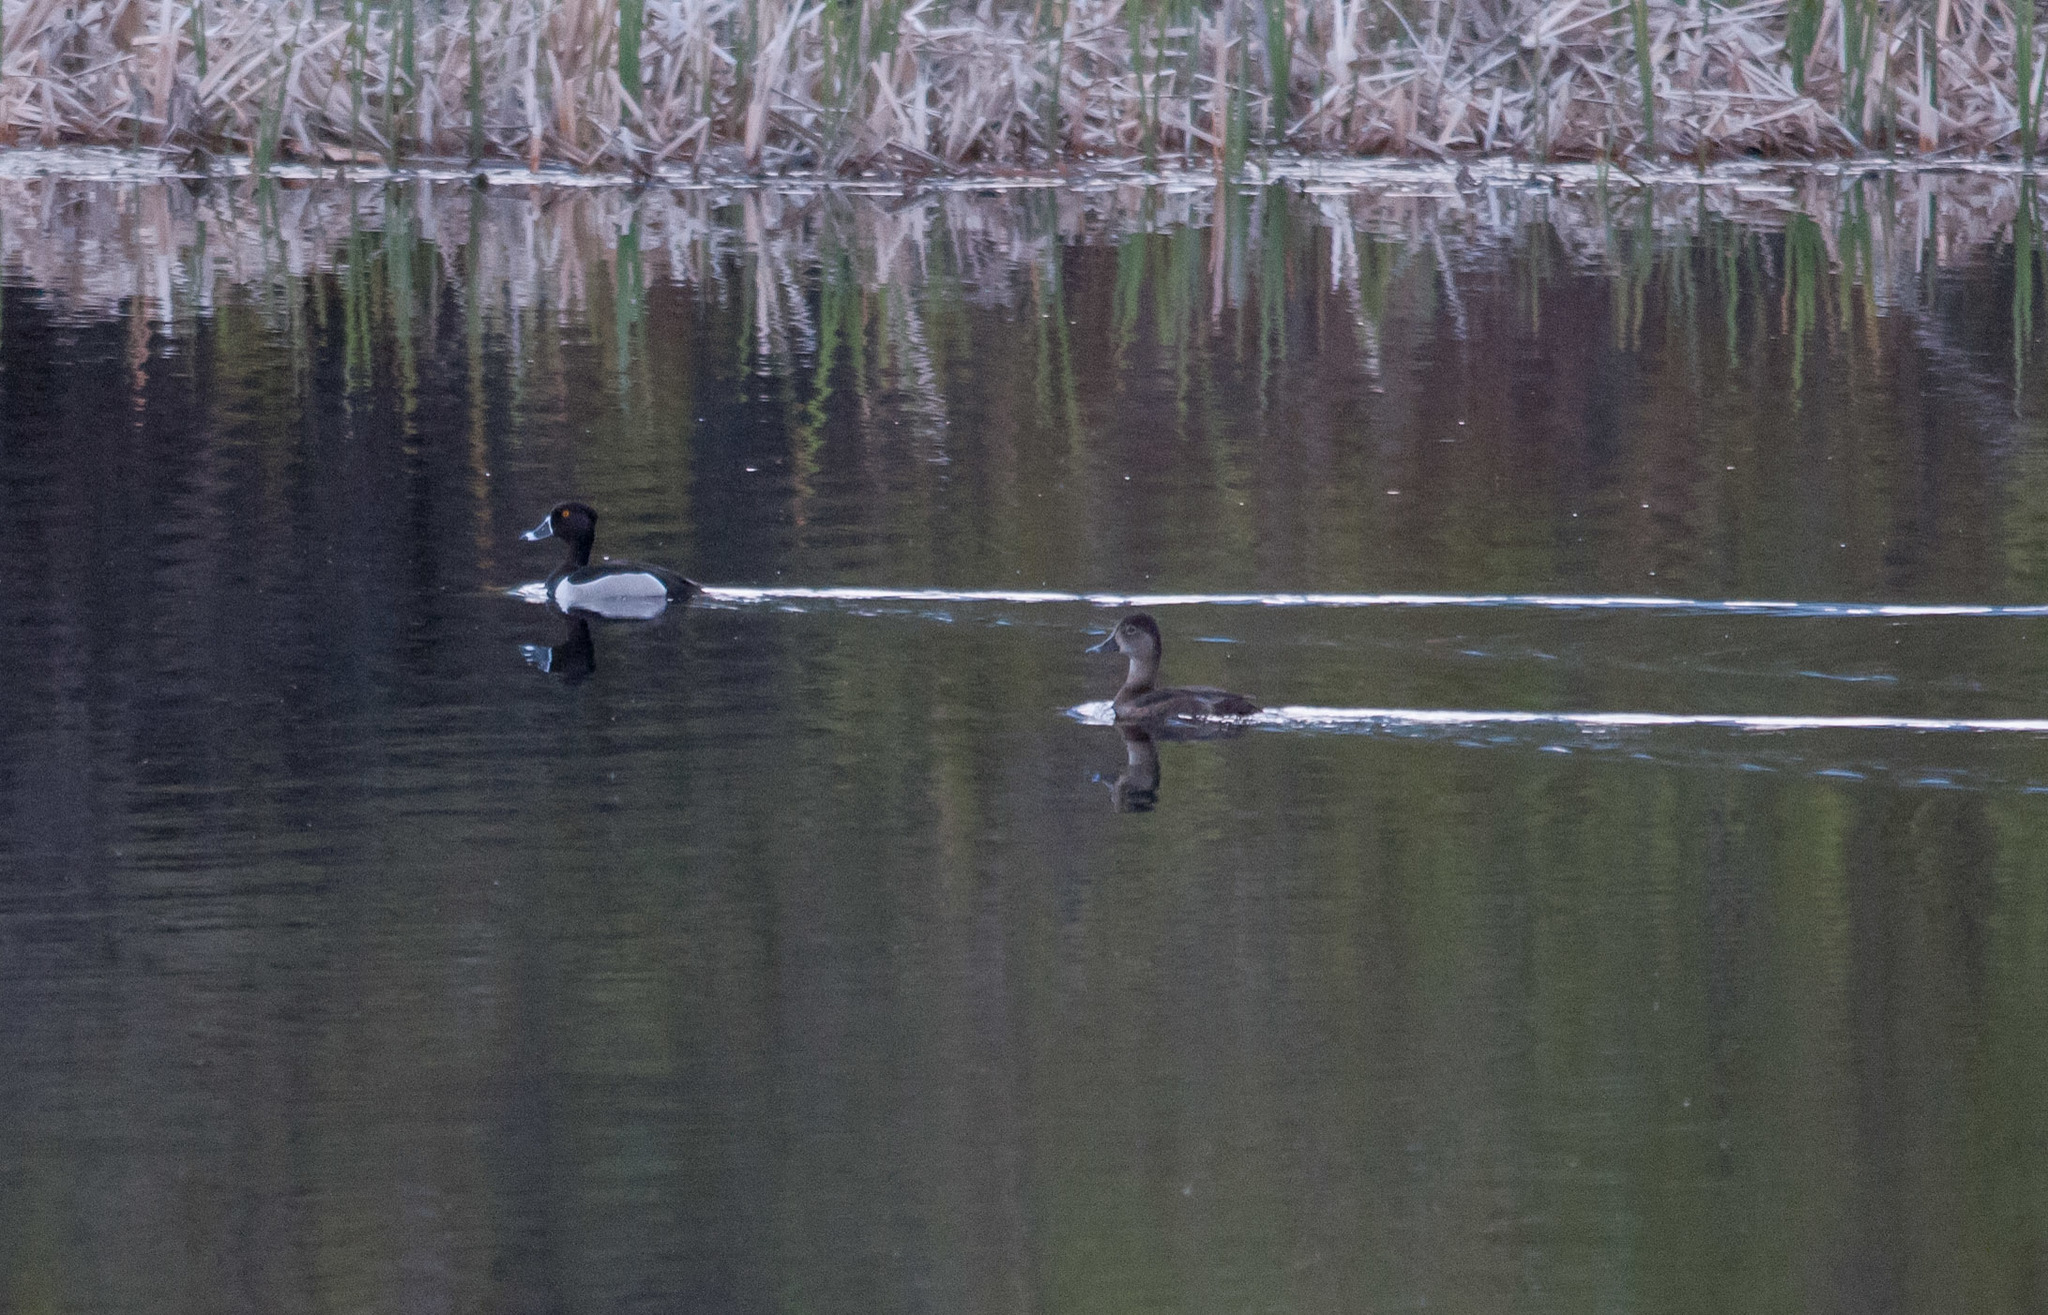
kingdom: Animalia
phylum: Chordata
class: Aves
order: Anseriformes
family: Anatidae
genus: Aythya
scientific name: Aythya collaris
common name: Ring-necked duck
